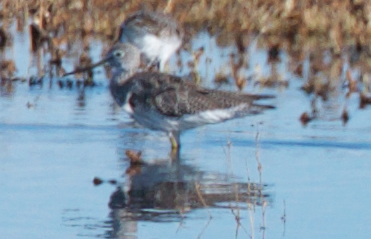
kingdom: Animalia
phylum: Chordata
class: Aves
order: Charadriiformes
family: Scolopacidae
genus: Tringa
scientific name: Tringa melanoleuca
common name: Greater yellowlegs
